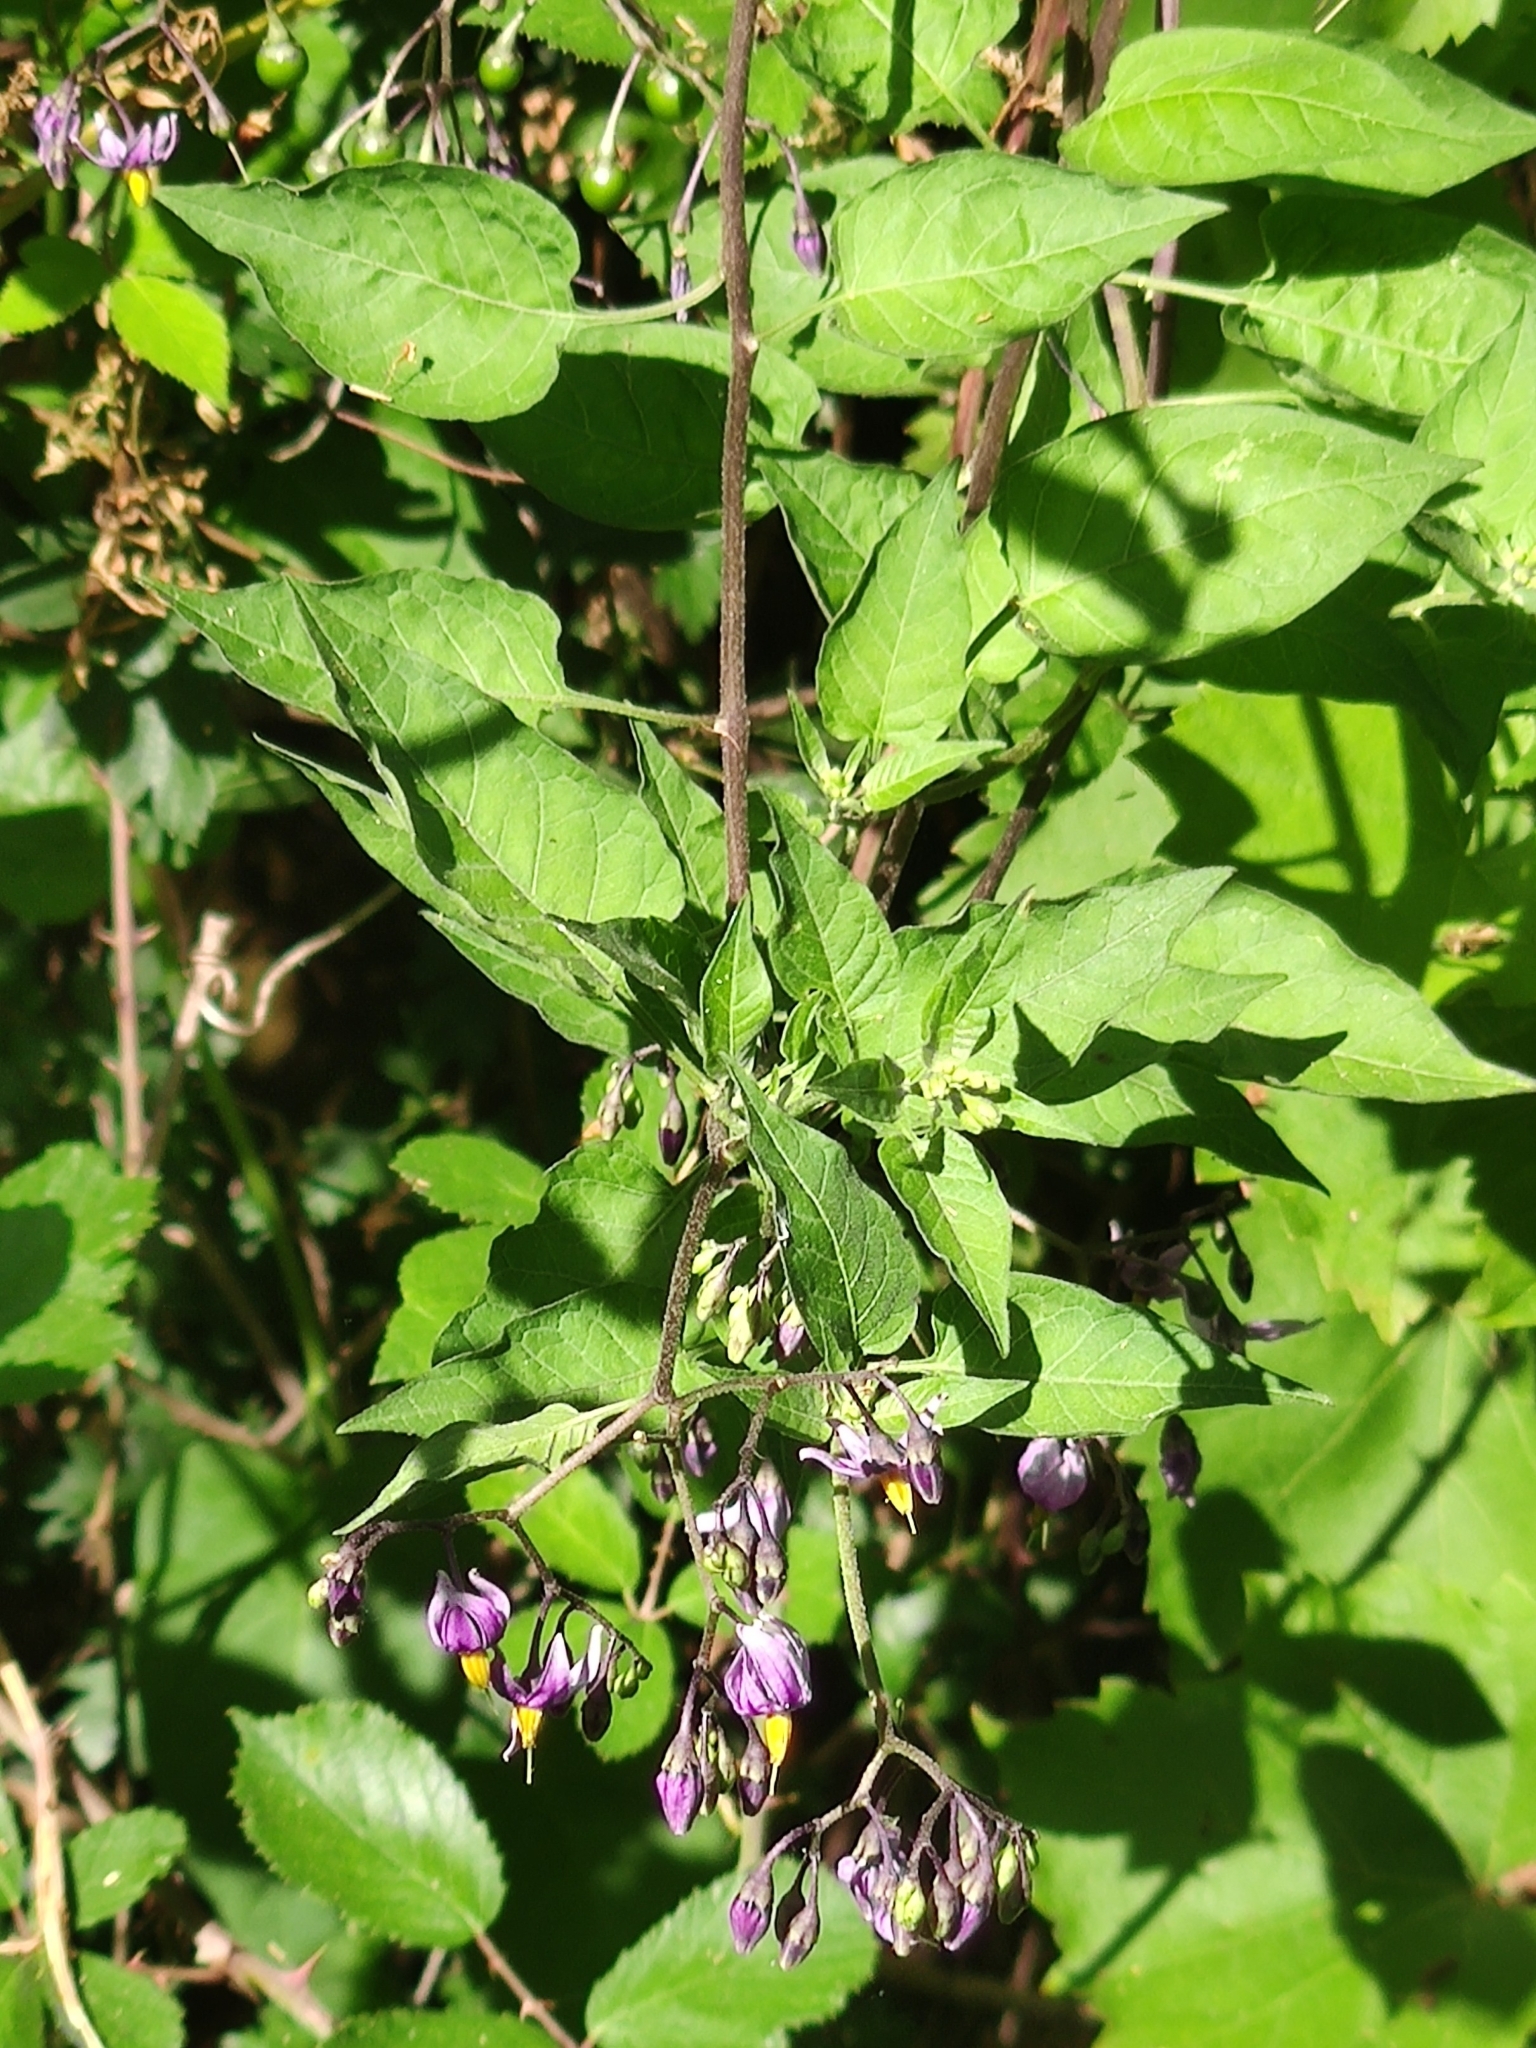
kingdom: Plantae
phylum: Tracheophyta
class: Magnoliopsida
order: Solanales
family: Solanaceae
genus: Solanum
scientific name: Solanum dulcamara
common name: Climbing nightshade
